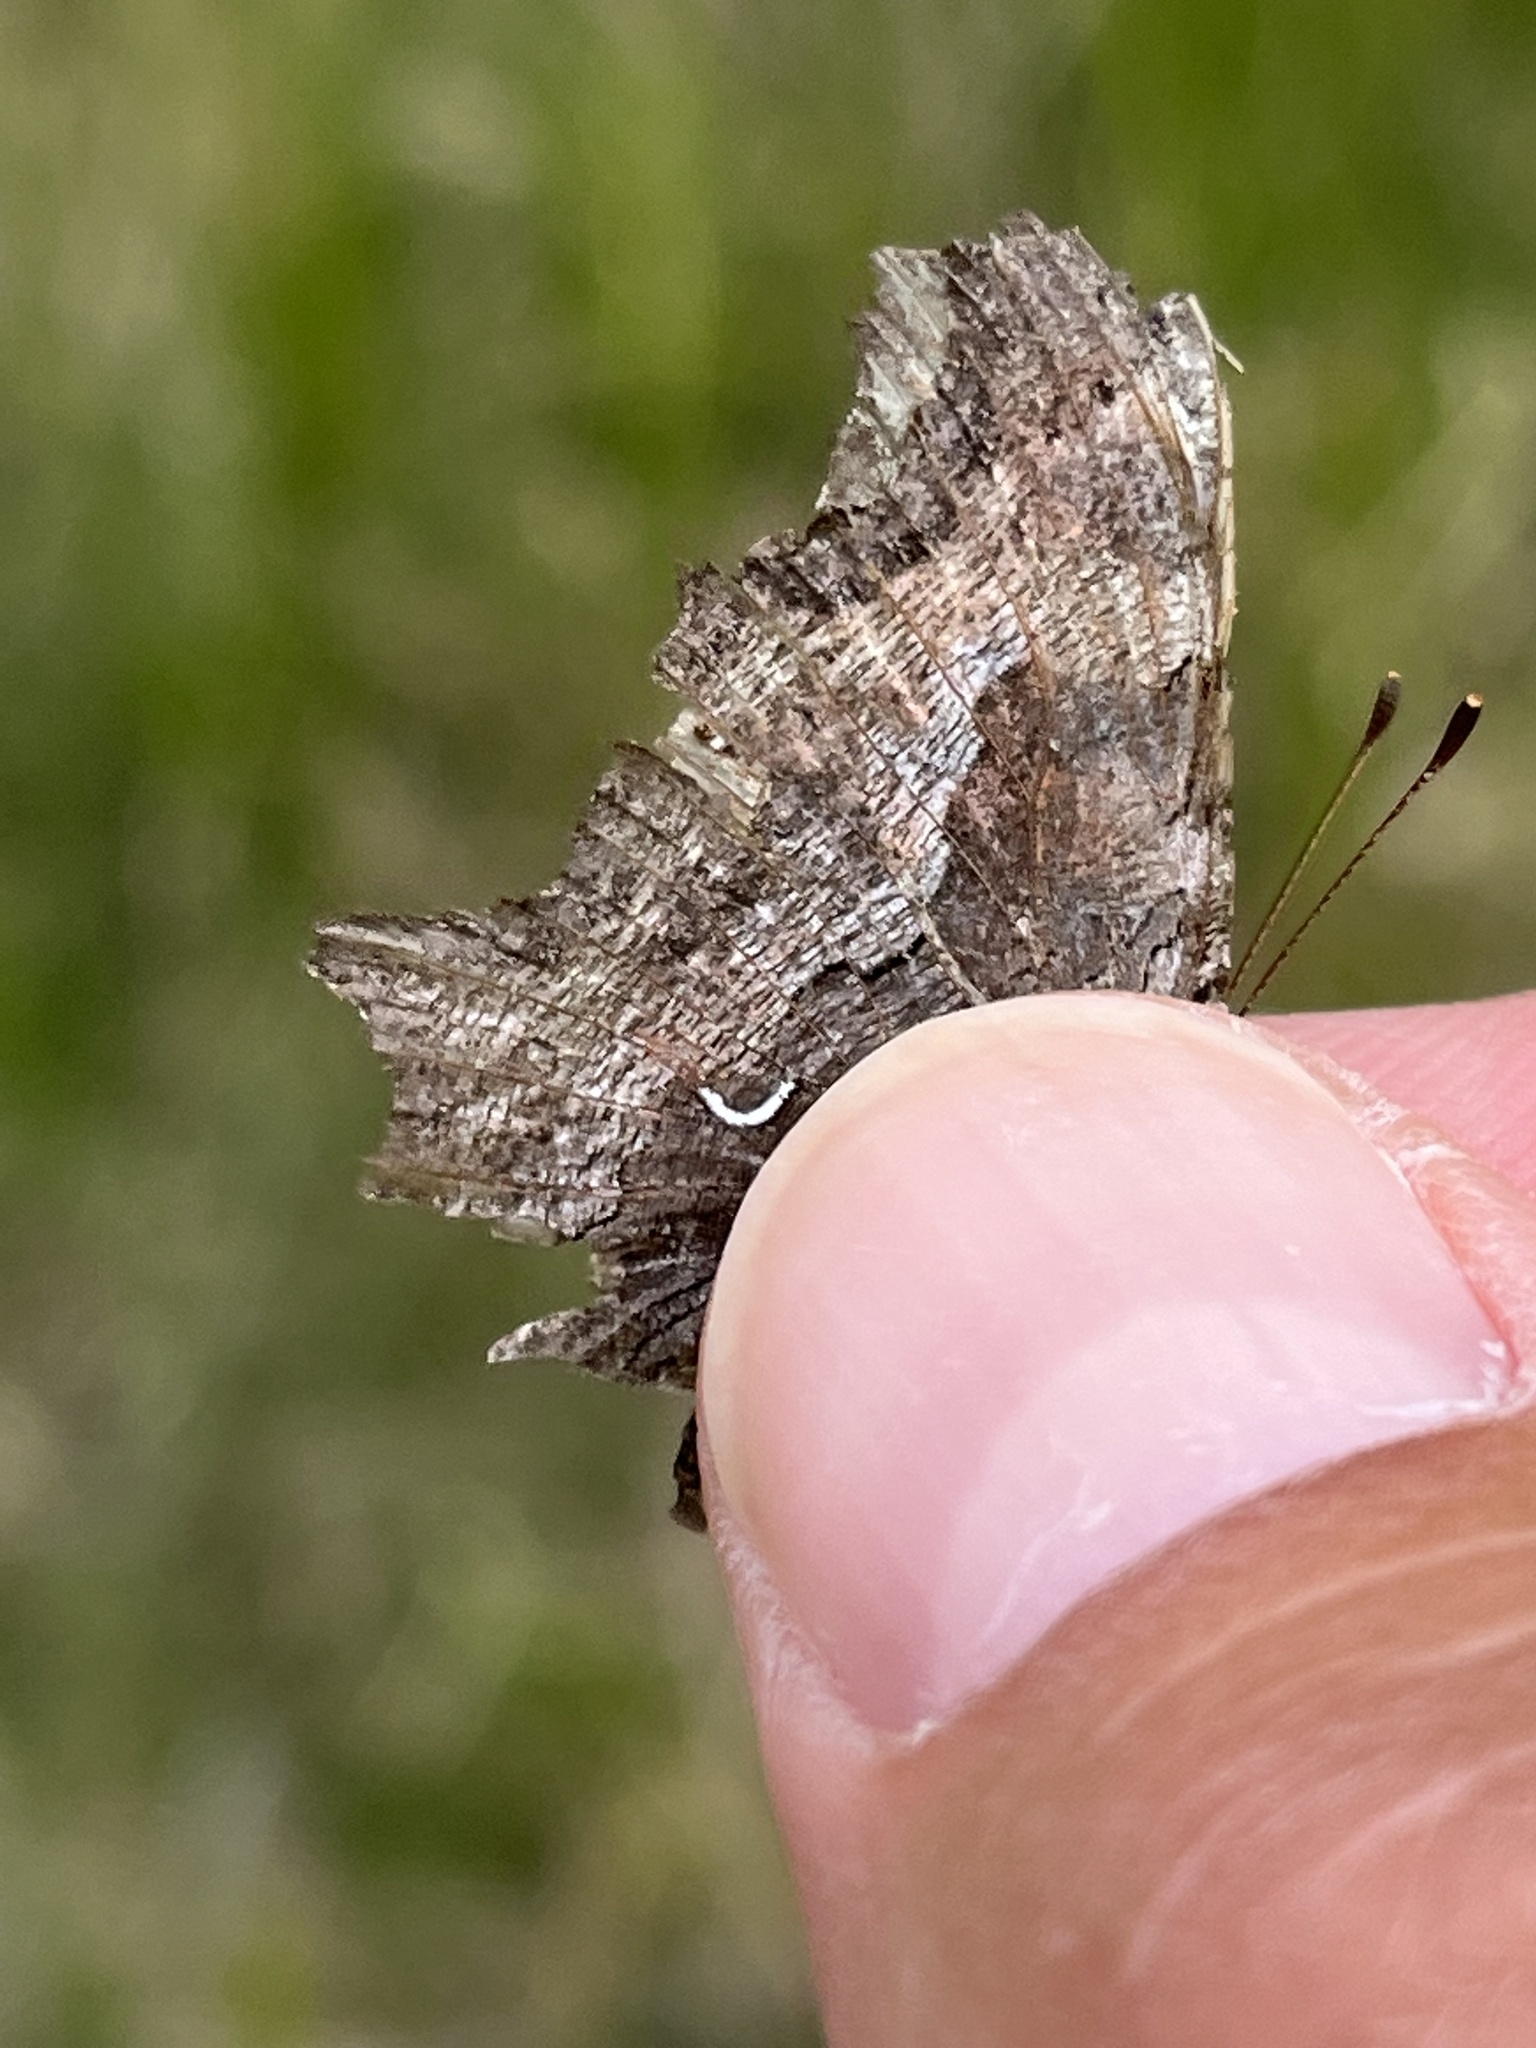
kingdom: Animalia
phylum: Arthropoda
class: Insecta
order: Lepidoptera
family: Nymphalidae
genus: Polygonia
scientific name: Polygonia gracilis
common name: Hoary comma
